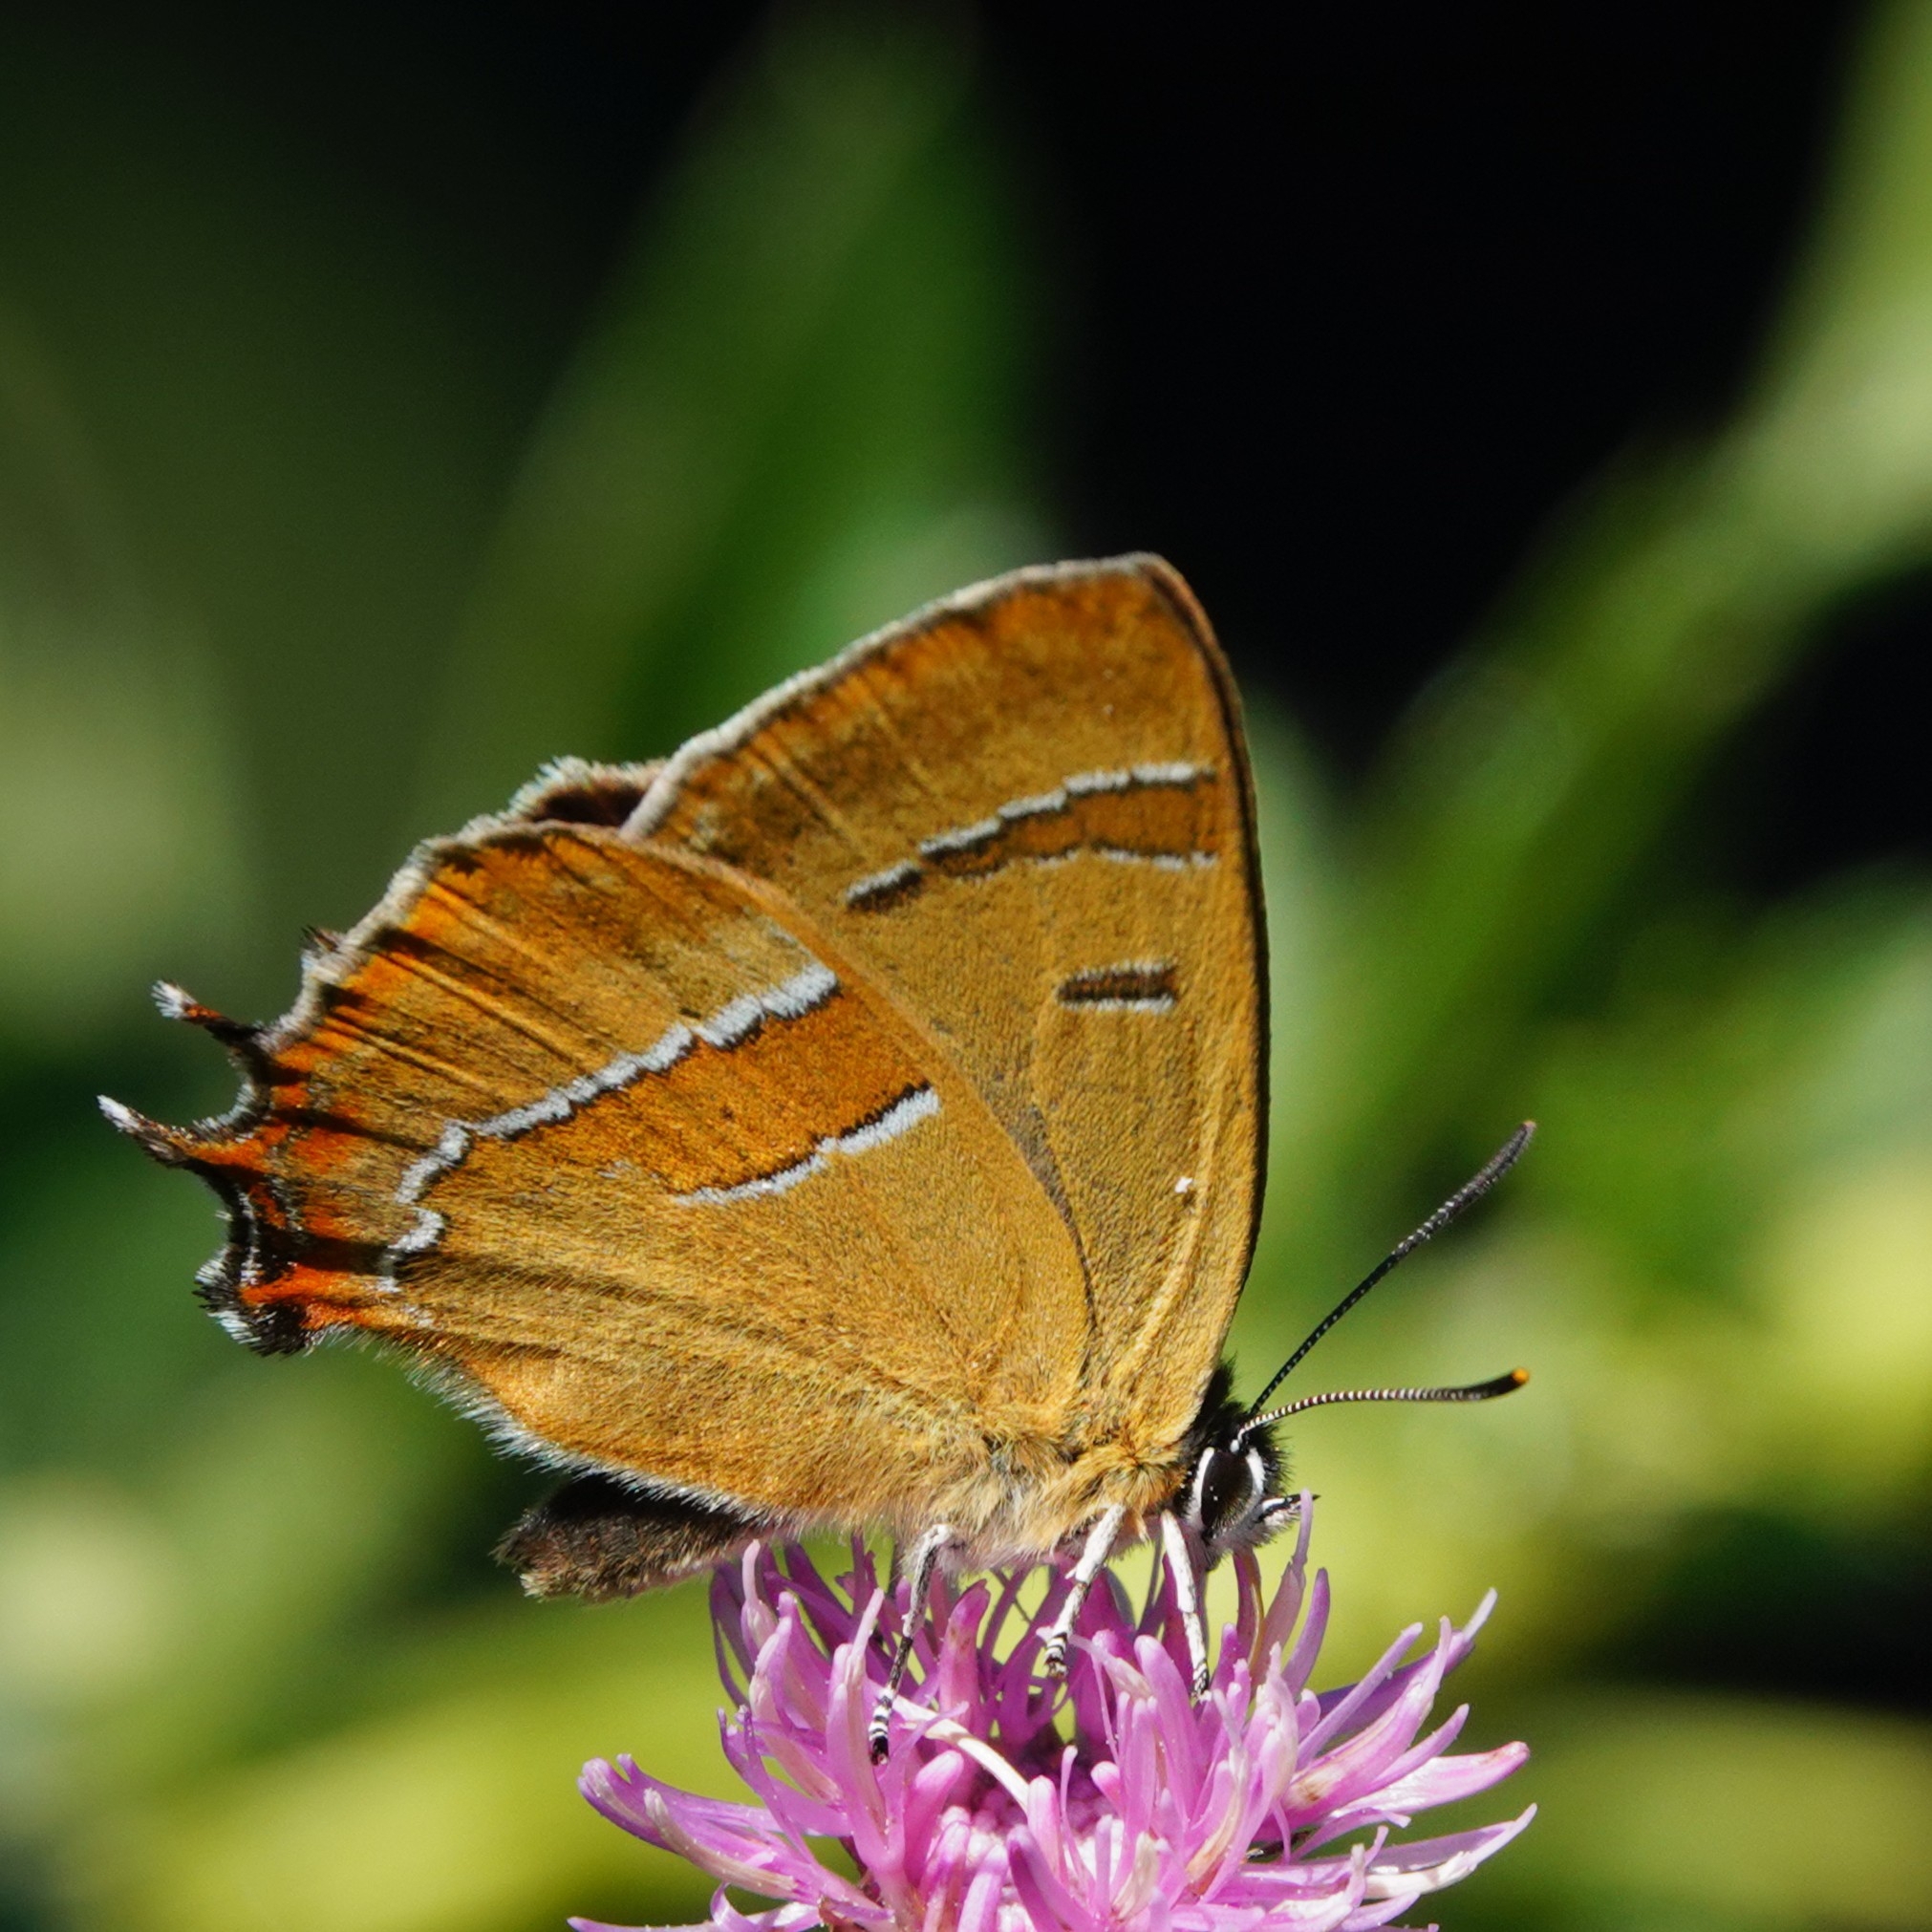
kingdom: Animalia
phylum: Arthropoda
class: Insecta
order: Lepidoptera
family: Lycaenidae
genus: Thecla
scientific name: Thecla betulae
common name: Brown hairstreak
